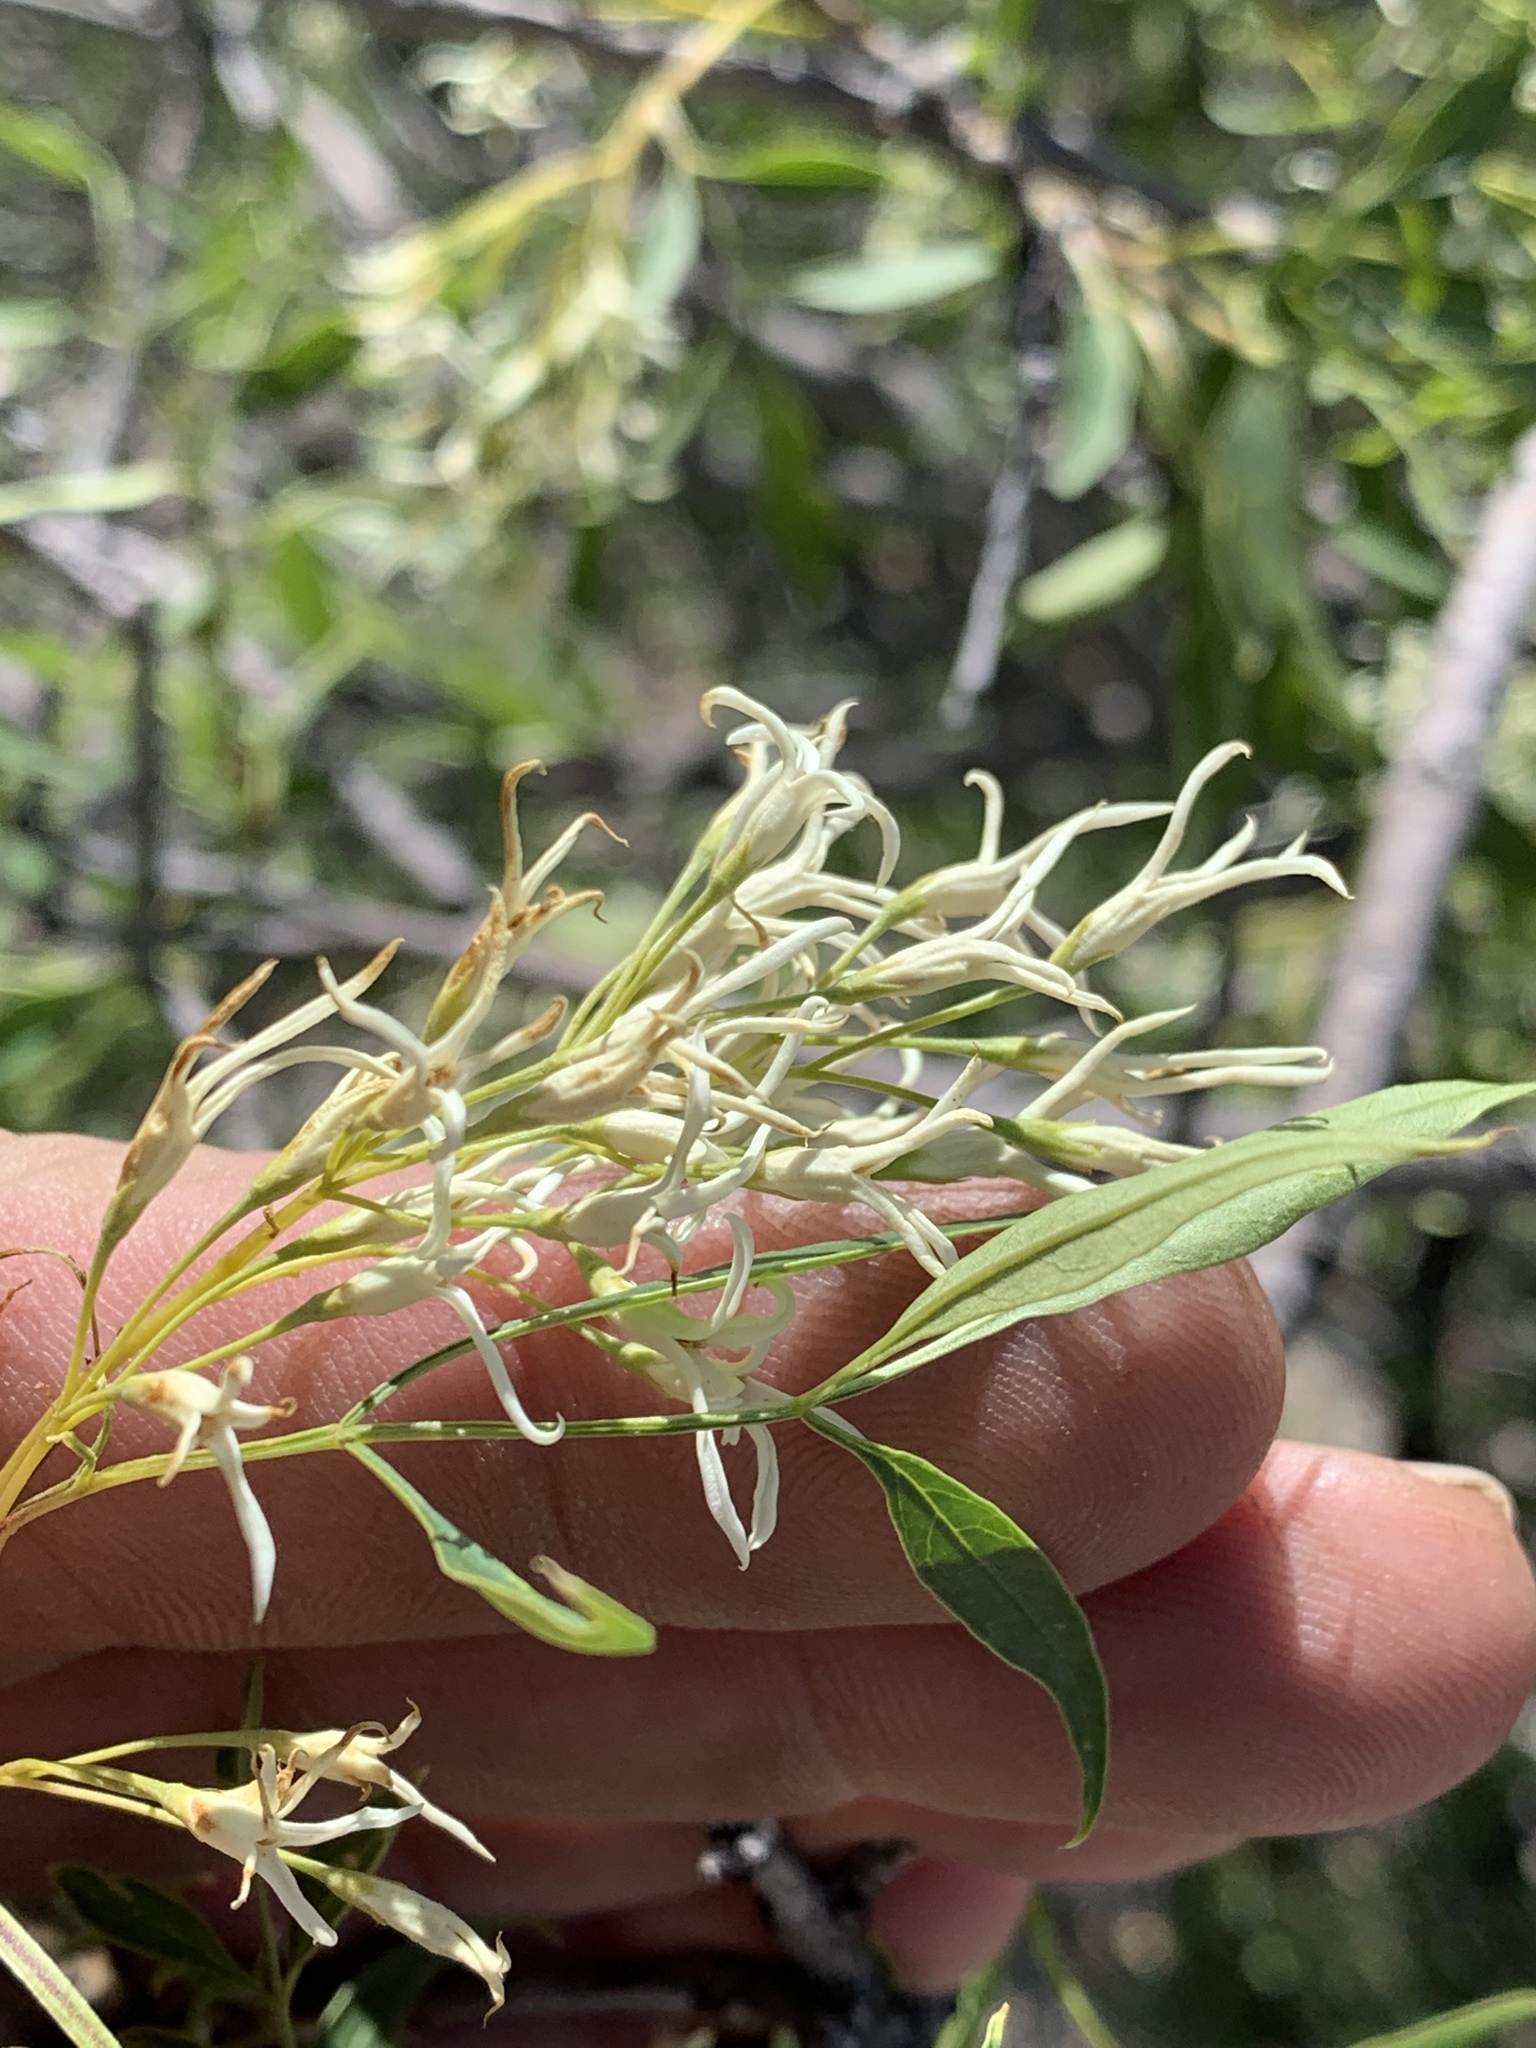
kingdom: Plantae
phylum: Tracheophyta
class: Magnoliopsida
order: Lamiales
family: Oleaceae
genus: Fraxinus
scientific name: Fraxinus cuspidata
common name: Fragrant ash
